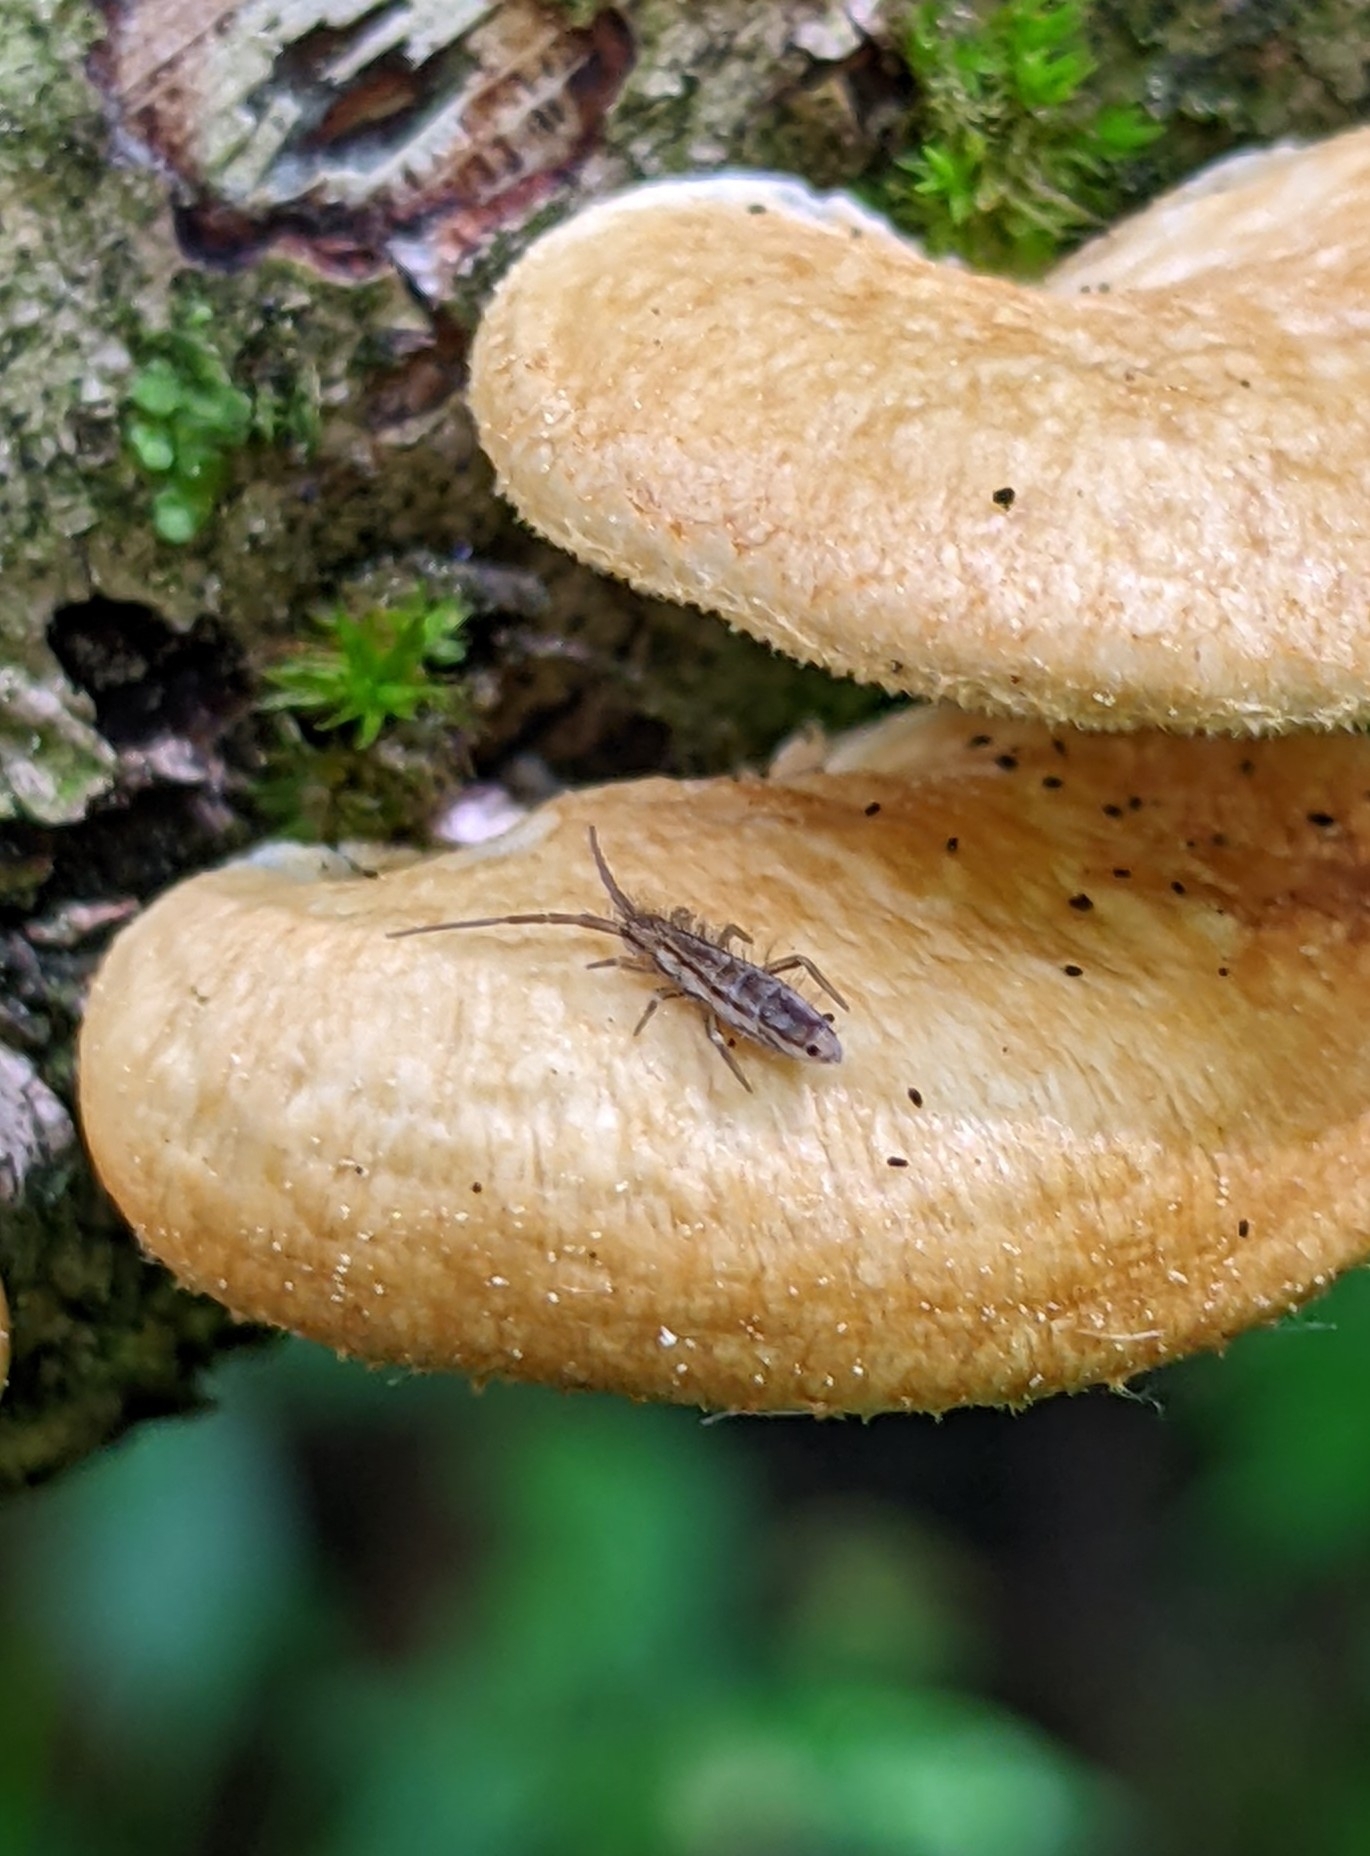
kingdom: Animalia
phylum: Arthropoda
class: Collembola
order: Entomobryomorpha
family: Entomobryidae
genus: Entomobrya
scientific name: Entomobrya nivalis
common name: Cosmopolitan springtail
